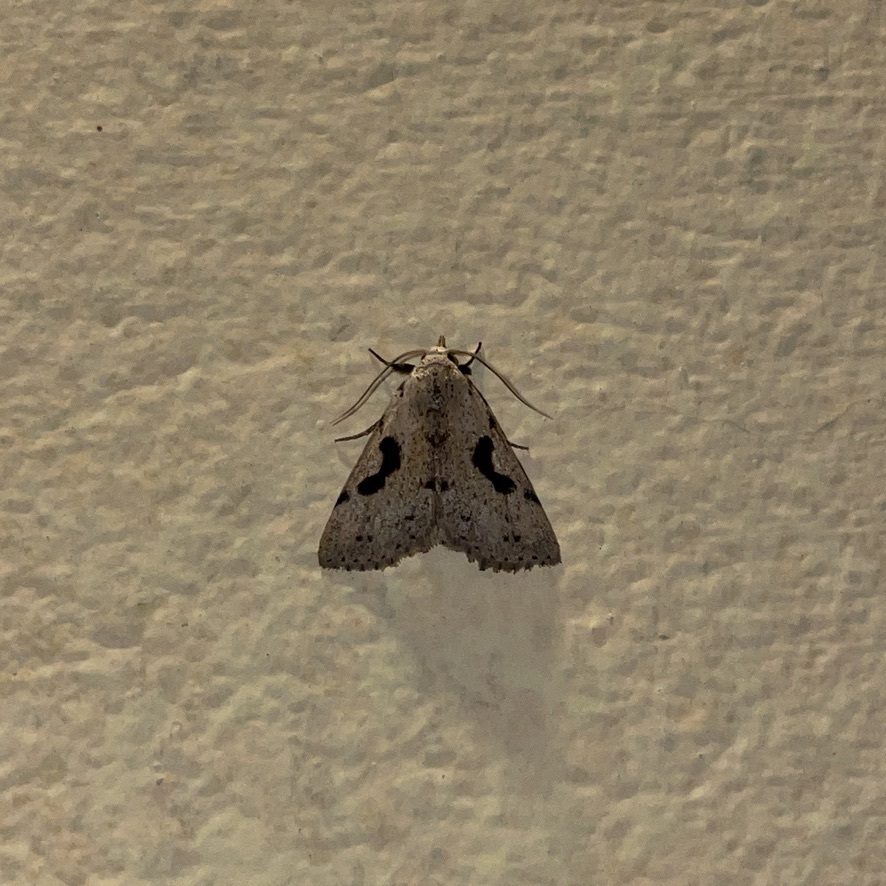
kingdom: Animalia
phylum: Arthropoda
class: Insecta
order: Lepidoptera
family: Erebidae
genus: Acanthermia
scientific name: Acanthermia concatenalis
